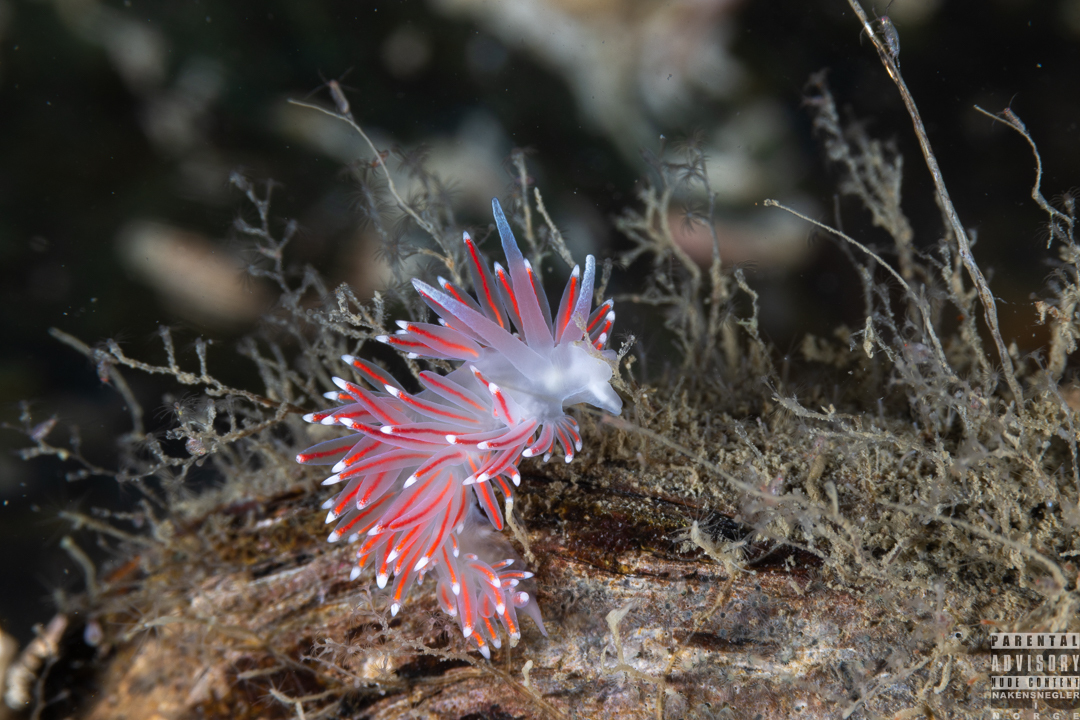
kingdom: Animalia
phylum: Mollusca
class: Gastropoda
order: Nudibranchia
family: Flabellinidae
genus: Carronella
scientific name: Carronella pellucida
